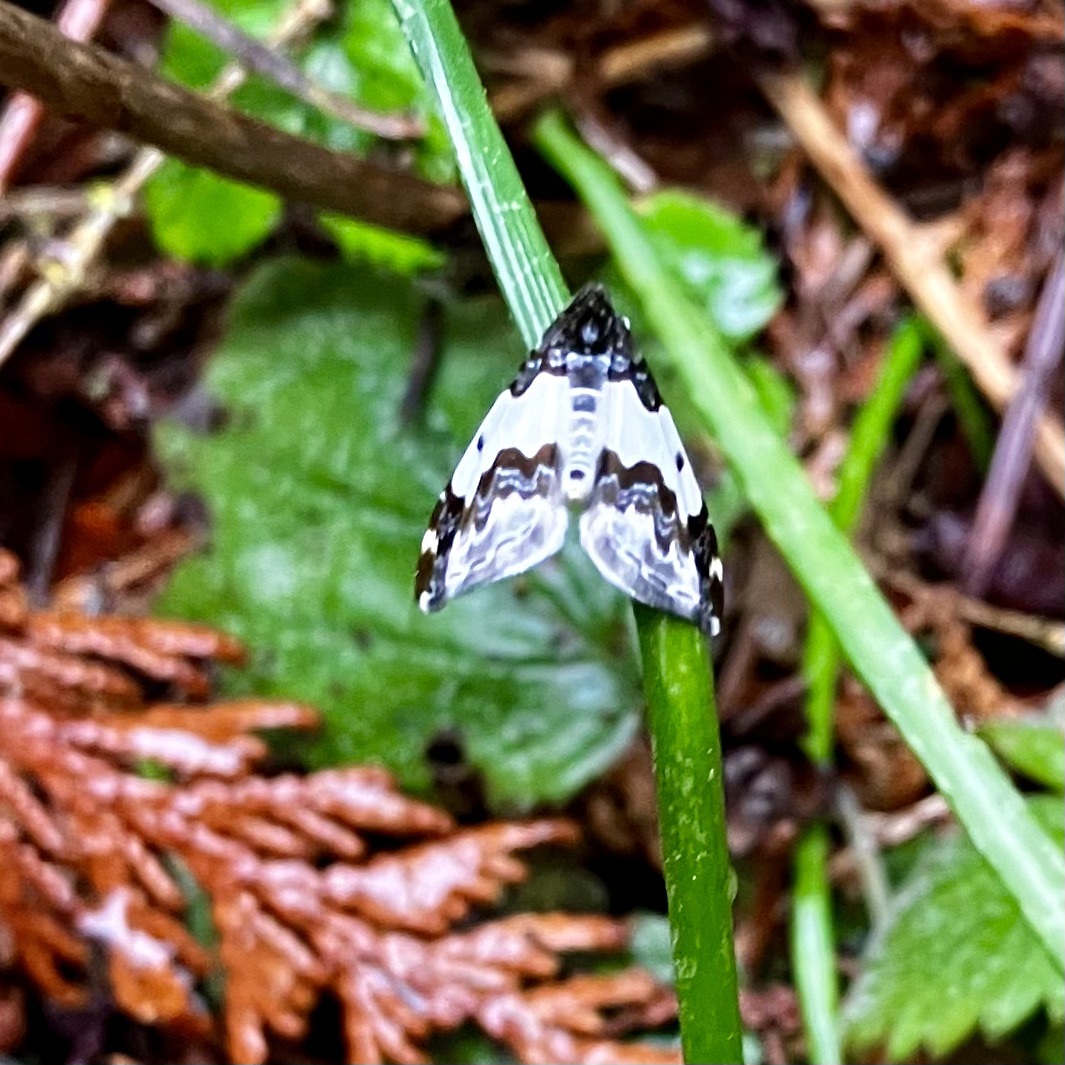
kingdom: Animalia
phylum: Arthropoda
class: Insecta
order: Lepidoptera
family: Geometridae
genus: Mesoleuca
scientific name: Mesoleuca gratulata
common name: Half-white carpet moth
